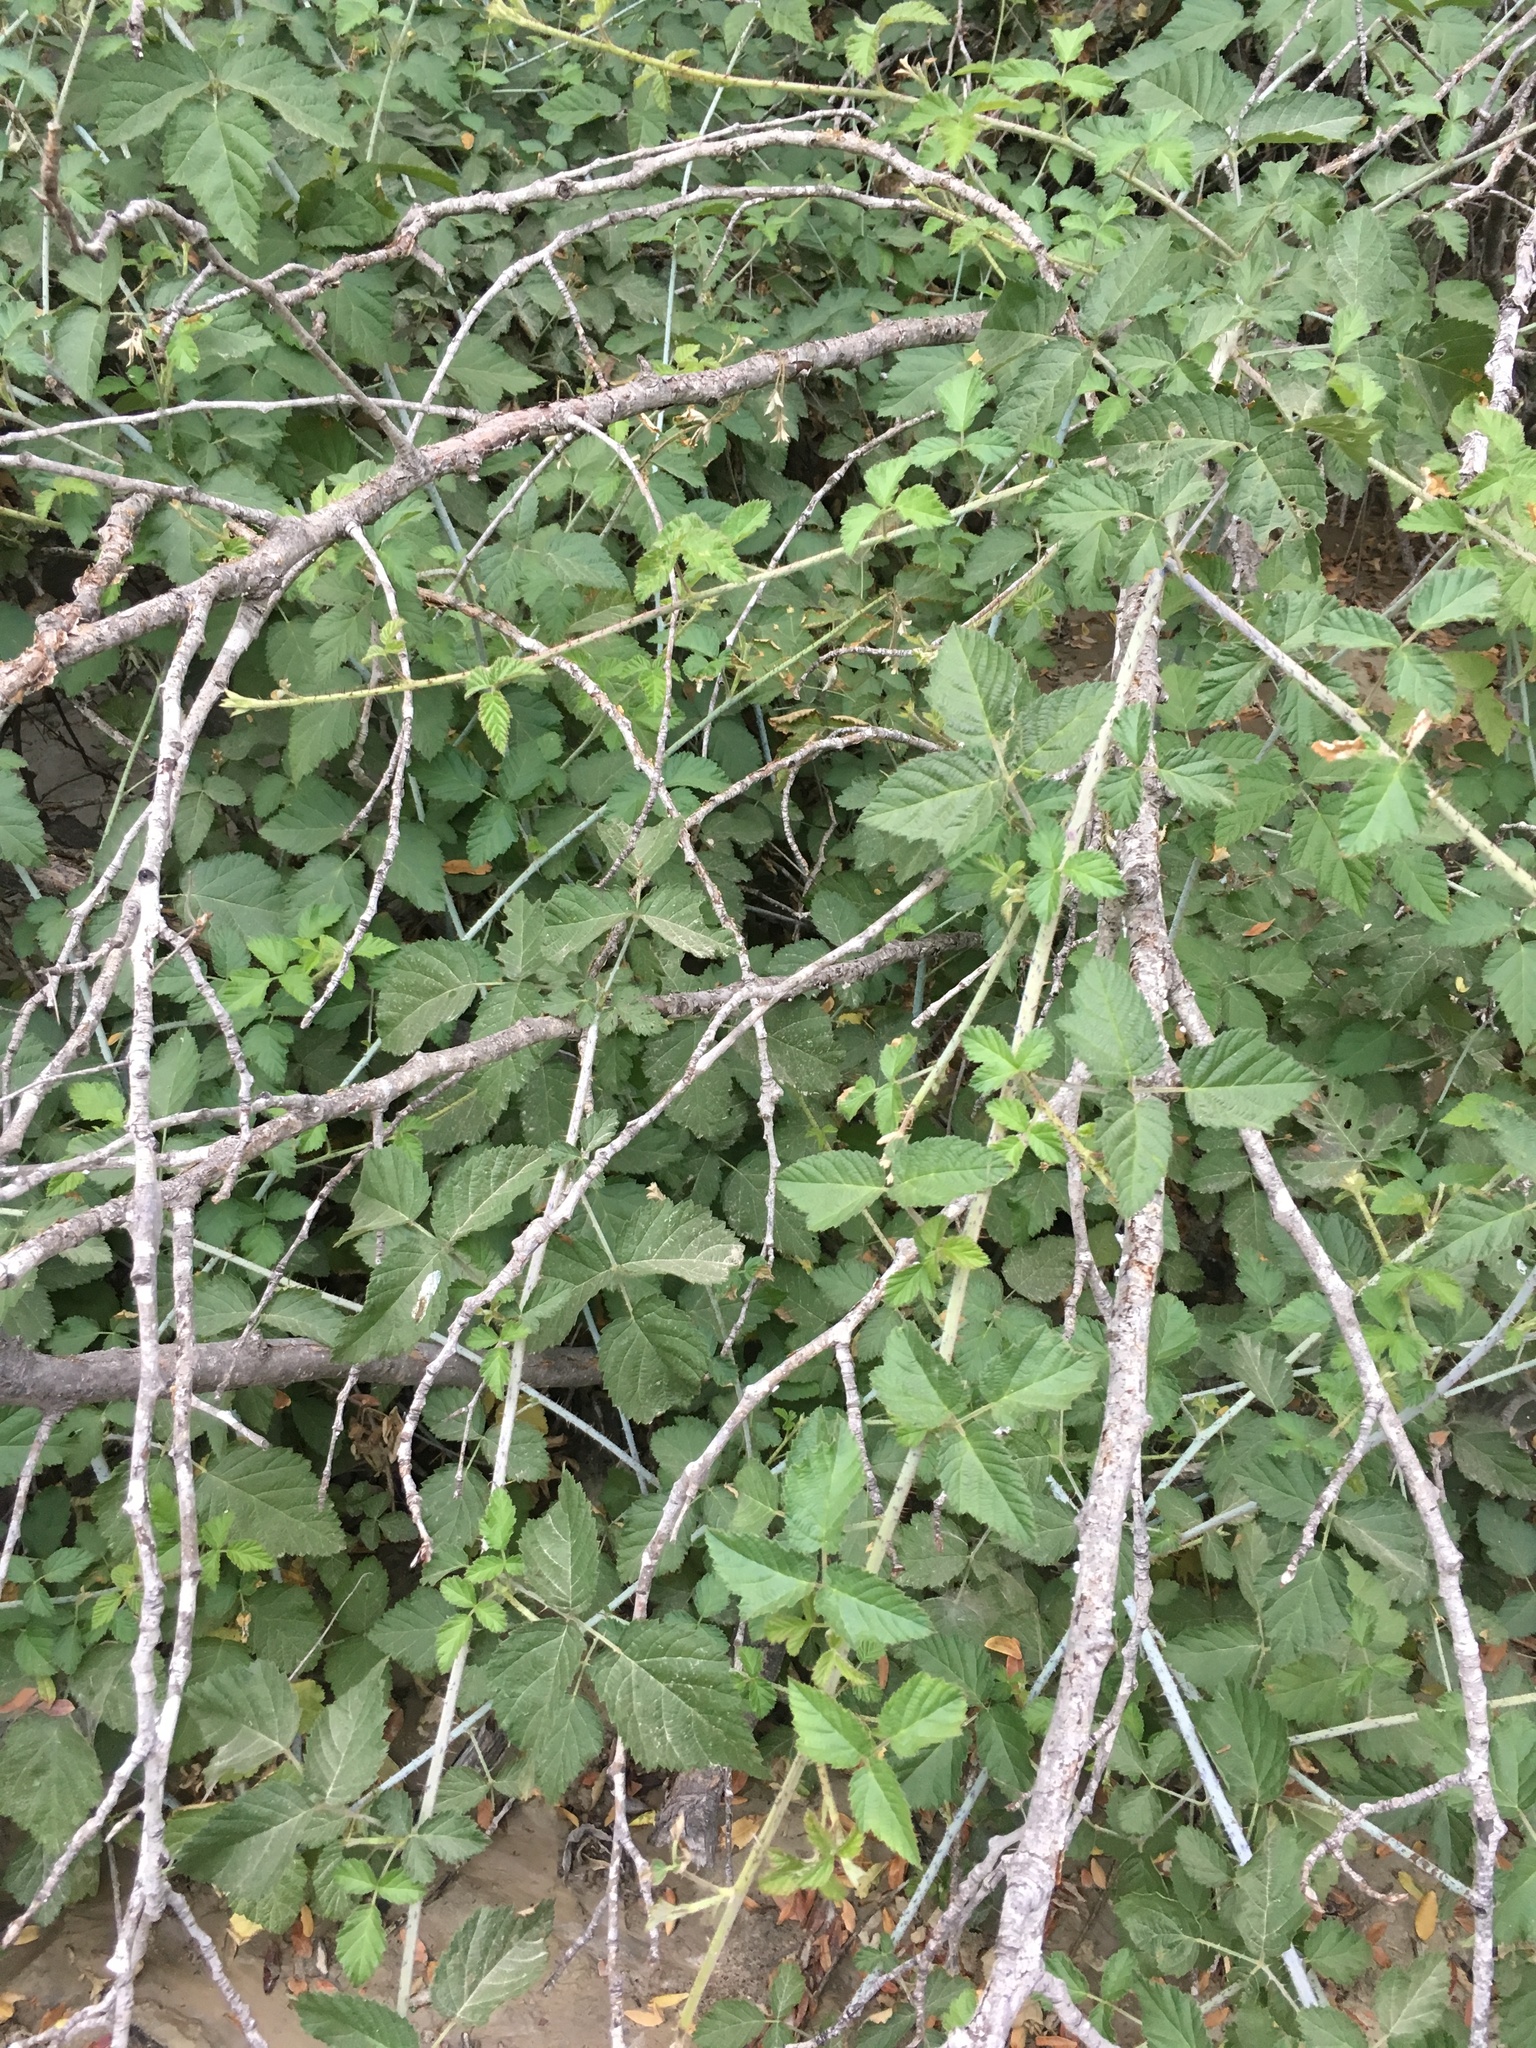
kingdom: Plantae
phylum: Tracheophyta
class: Magnoliopsida
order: Rosales
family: Rosaceae
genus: Rubus
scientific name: Rubus ursinus
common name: Pacific blackberry
